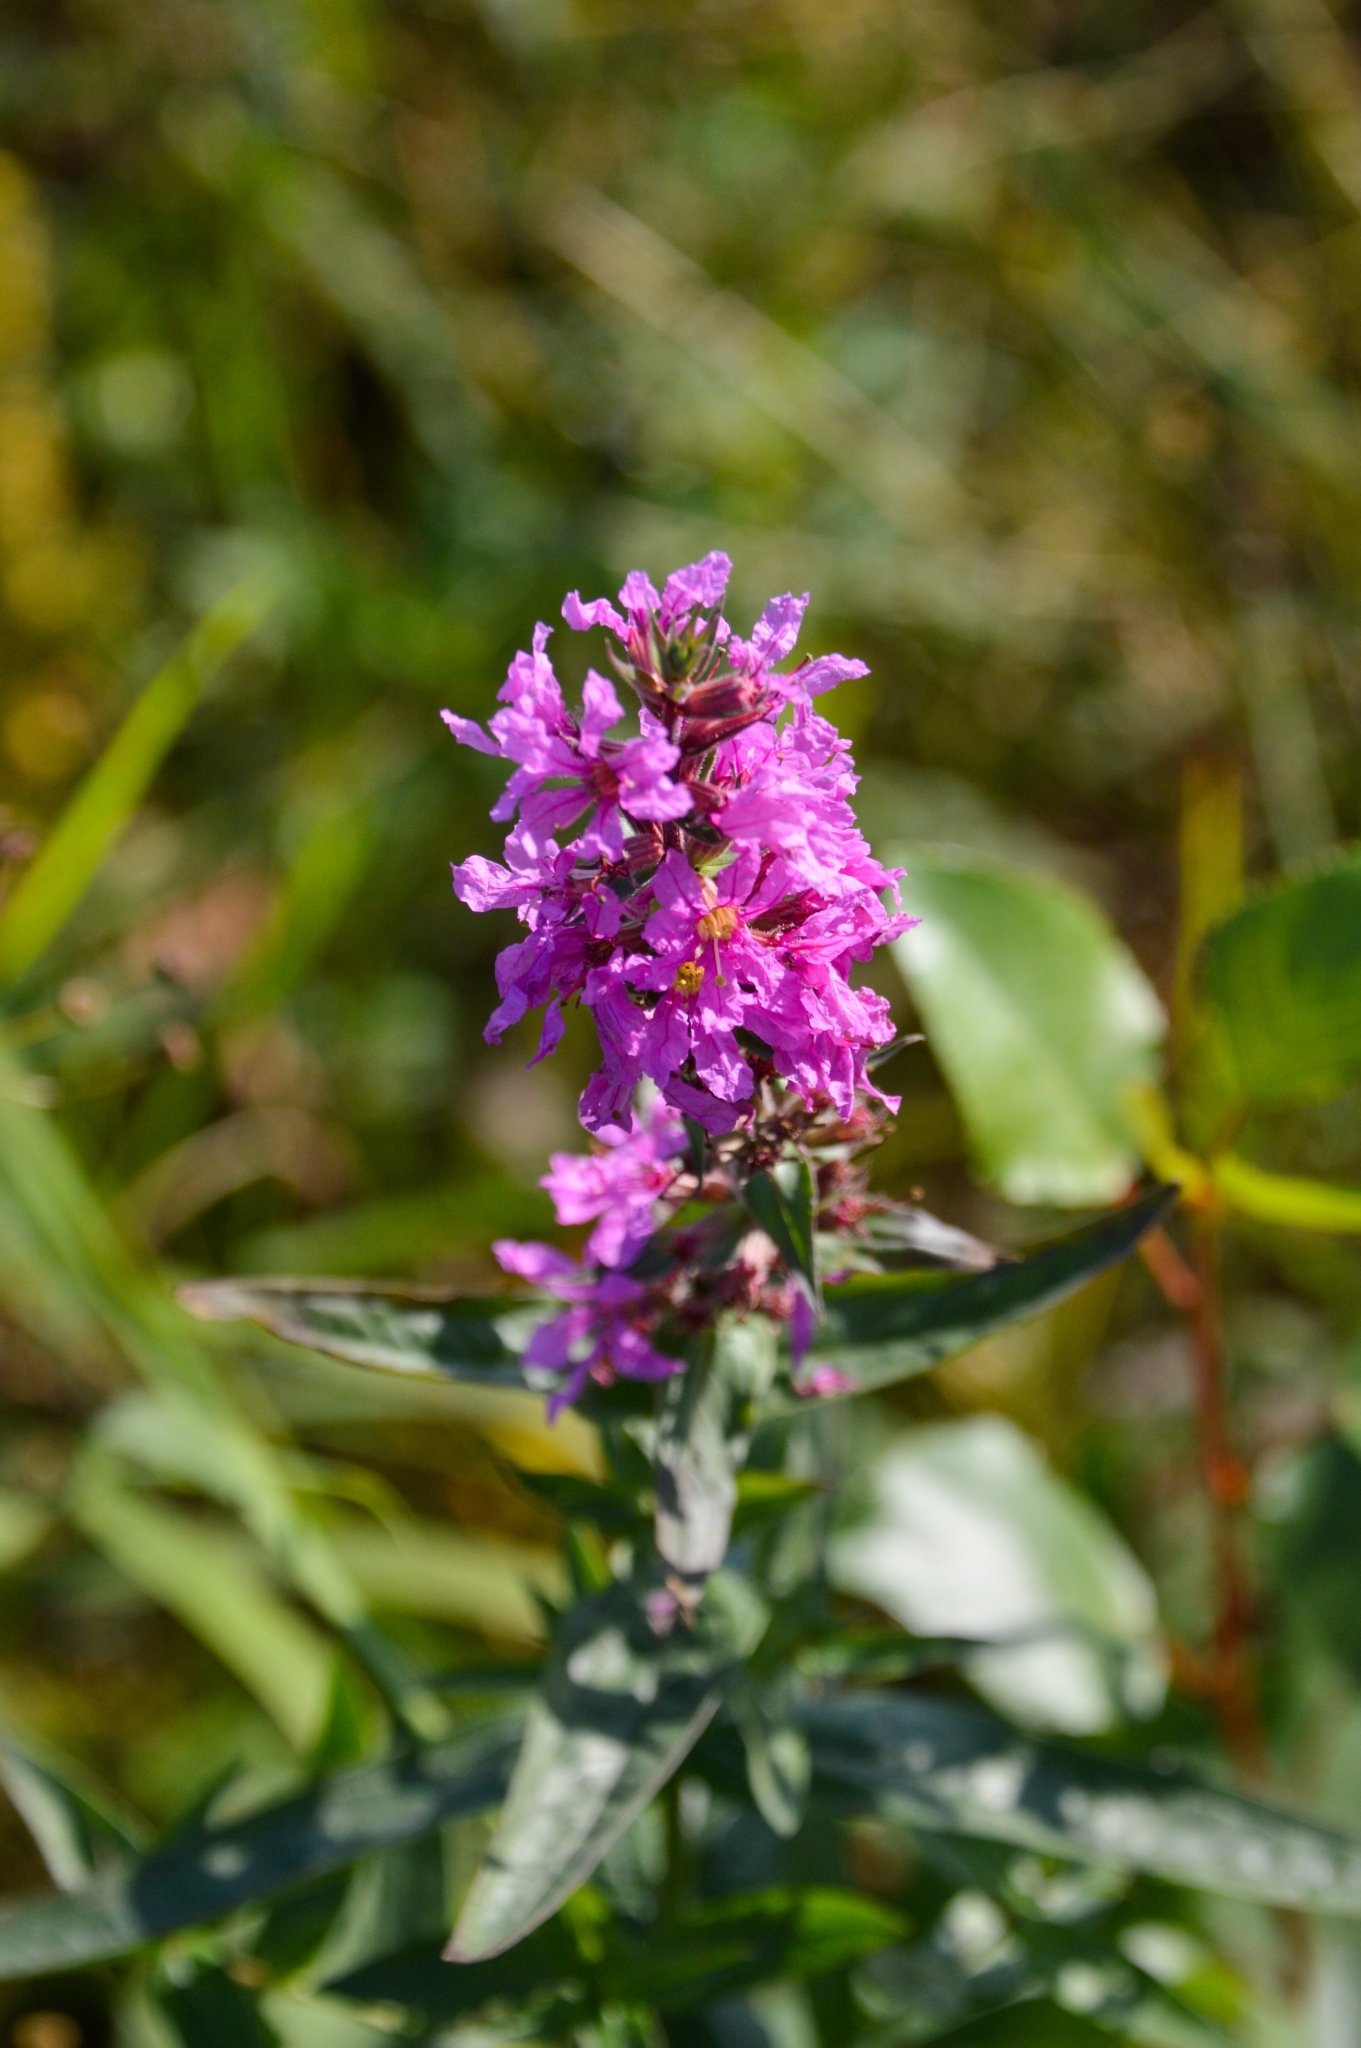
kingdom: Plantae
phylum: Tracheophyta
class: Magnoliopsida
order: Myrtales
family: Lythraceae
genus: Lythrum
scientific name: Lythrum salicaria
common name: Purple loosestrife
